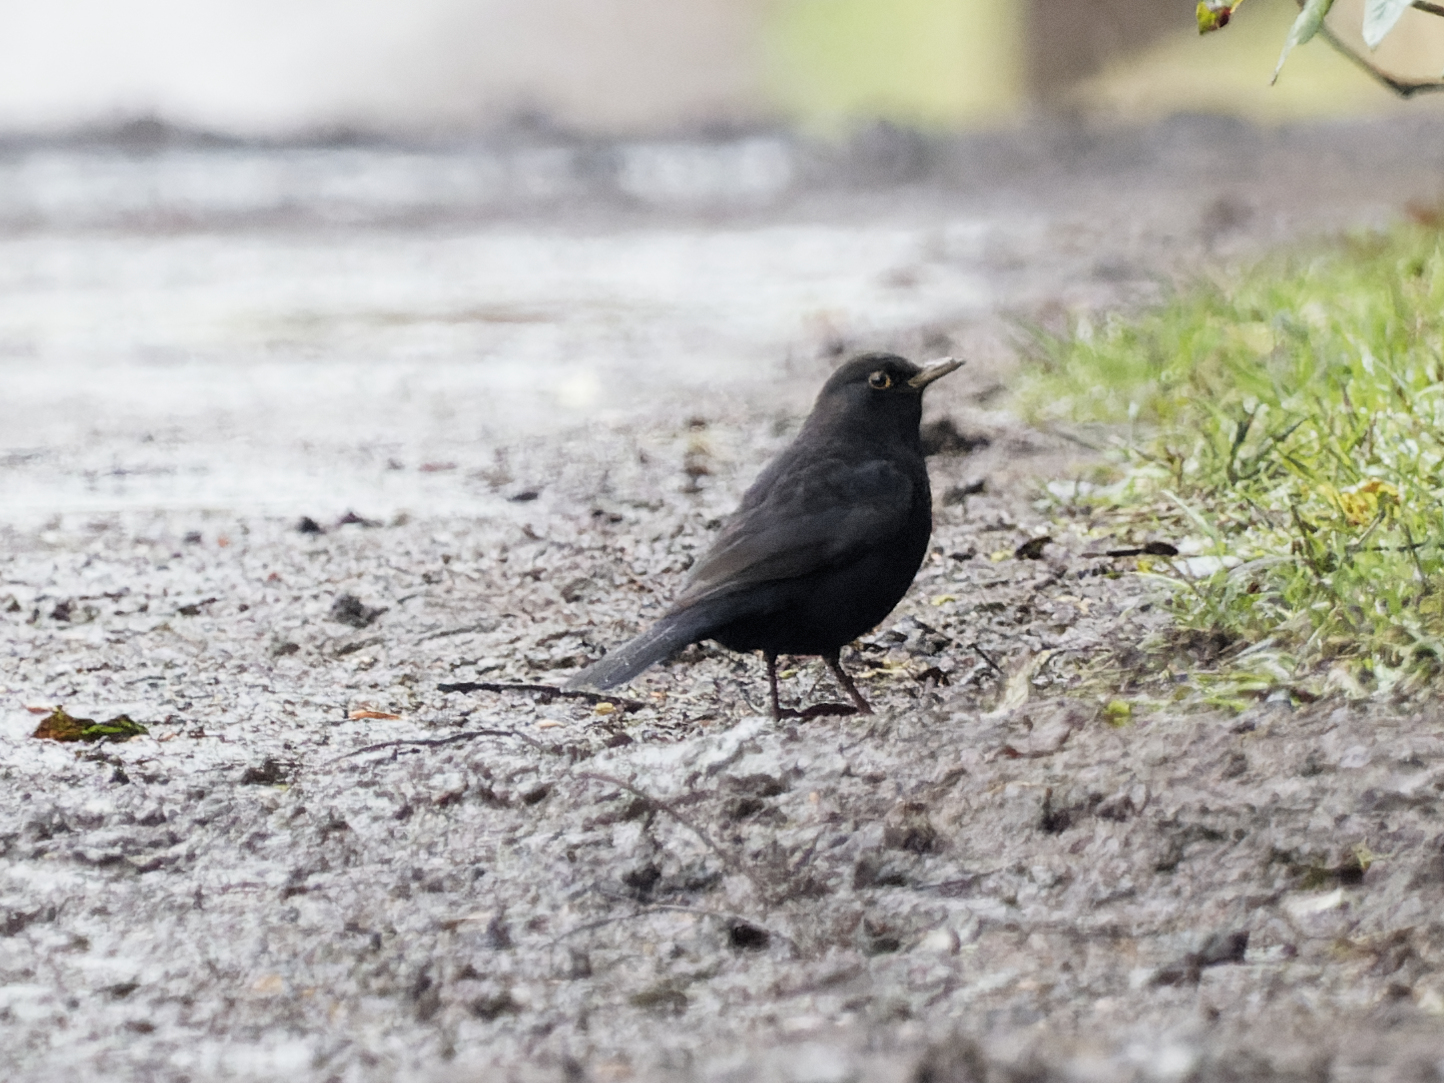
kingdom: Animalia
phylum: Chordata
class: Aves
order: Passeriformes
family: Turdidae
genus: Turdus
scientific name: Turdus merula
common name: Common blackbird
